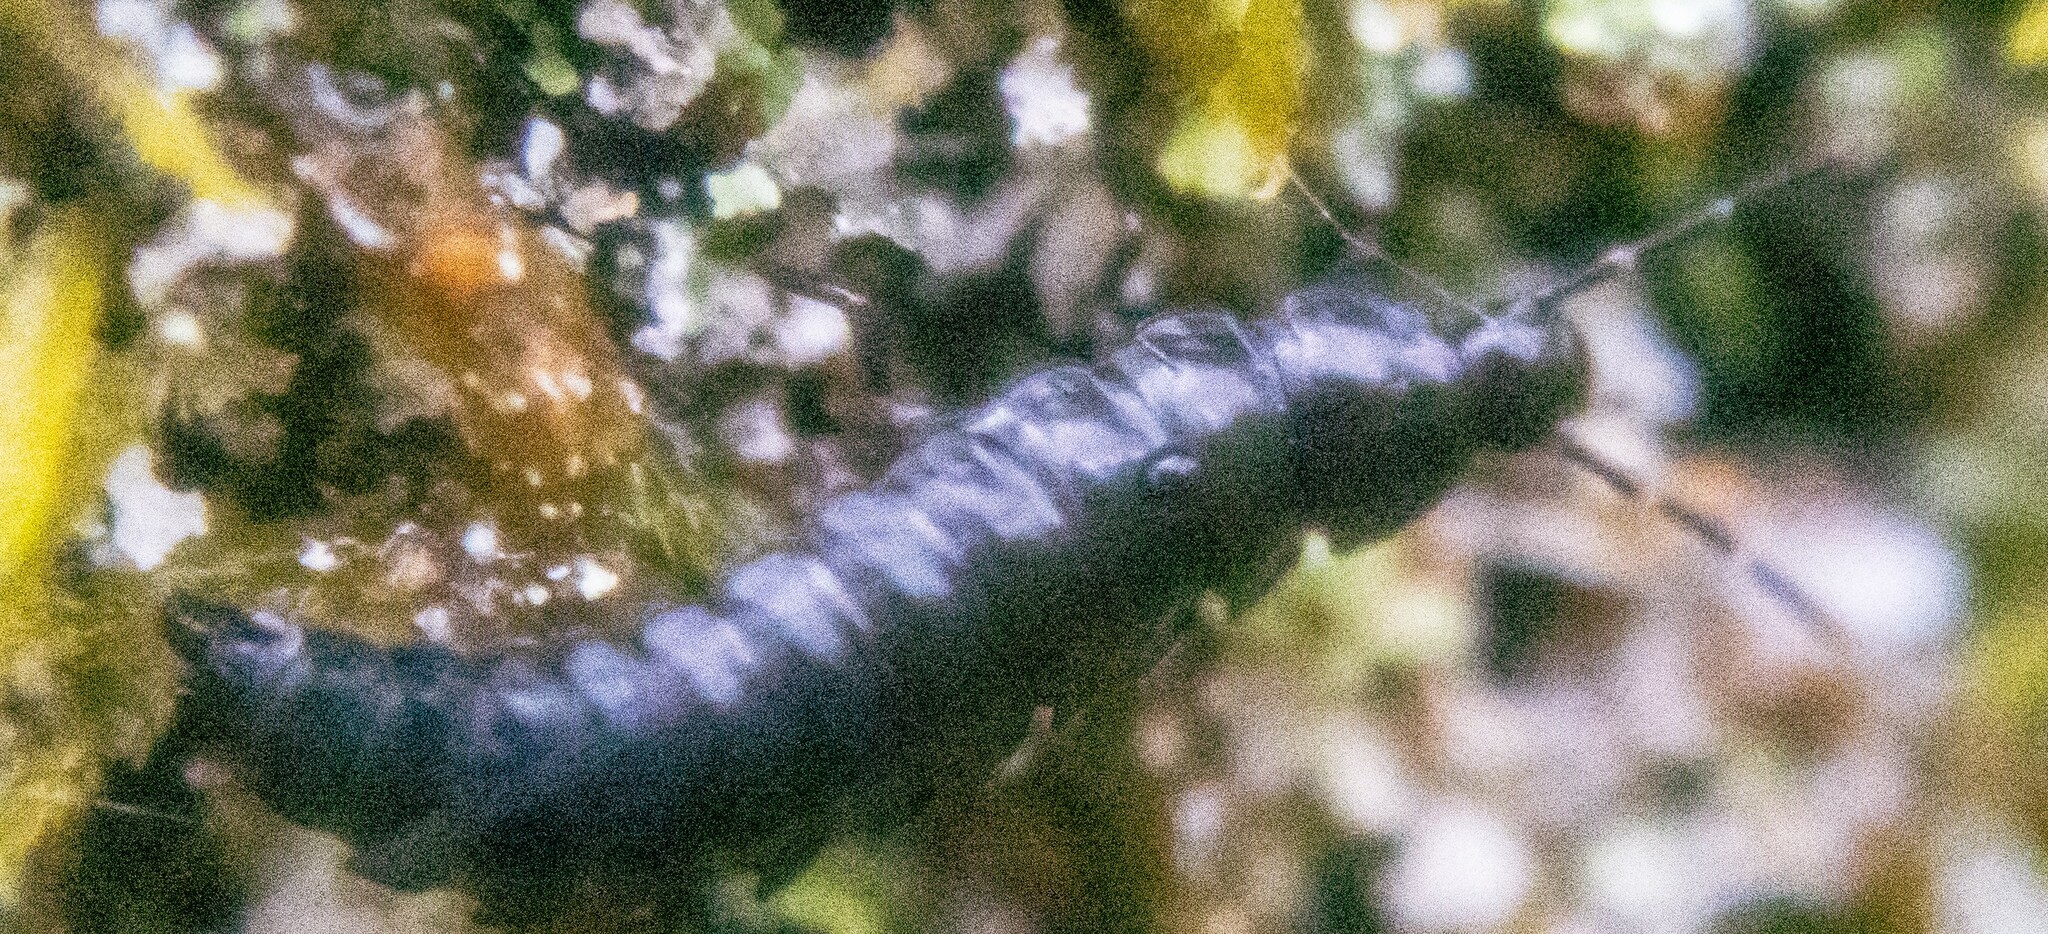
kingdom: Animalia
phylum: Arthropoda
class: Insecta
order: Coleoptera
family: Staphylinidae
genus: Silpha
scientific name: Silpha atrata
